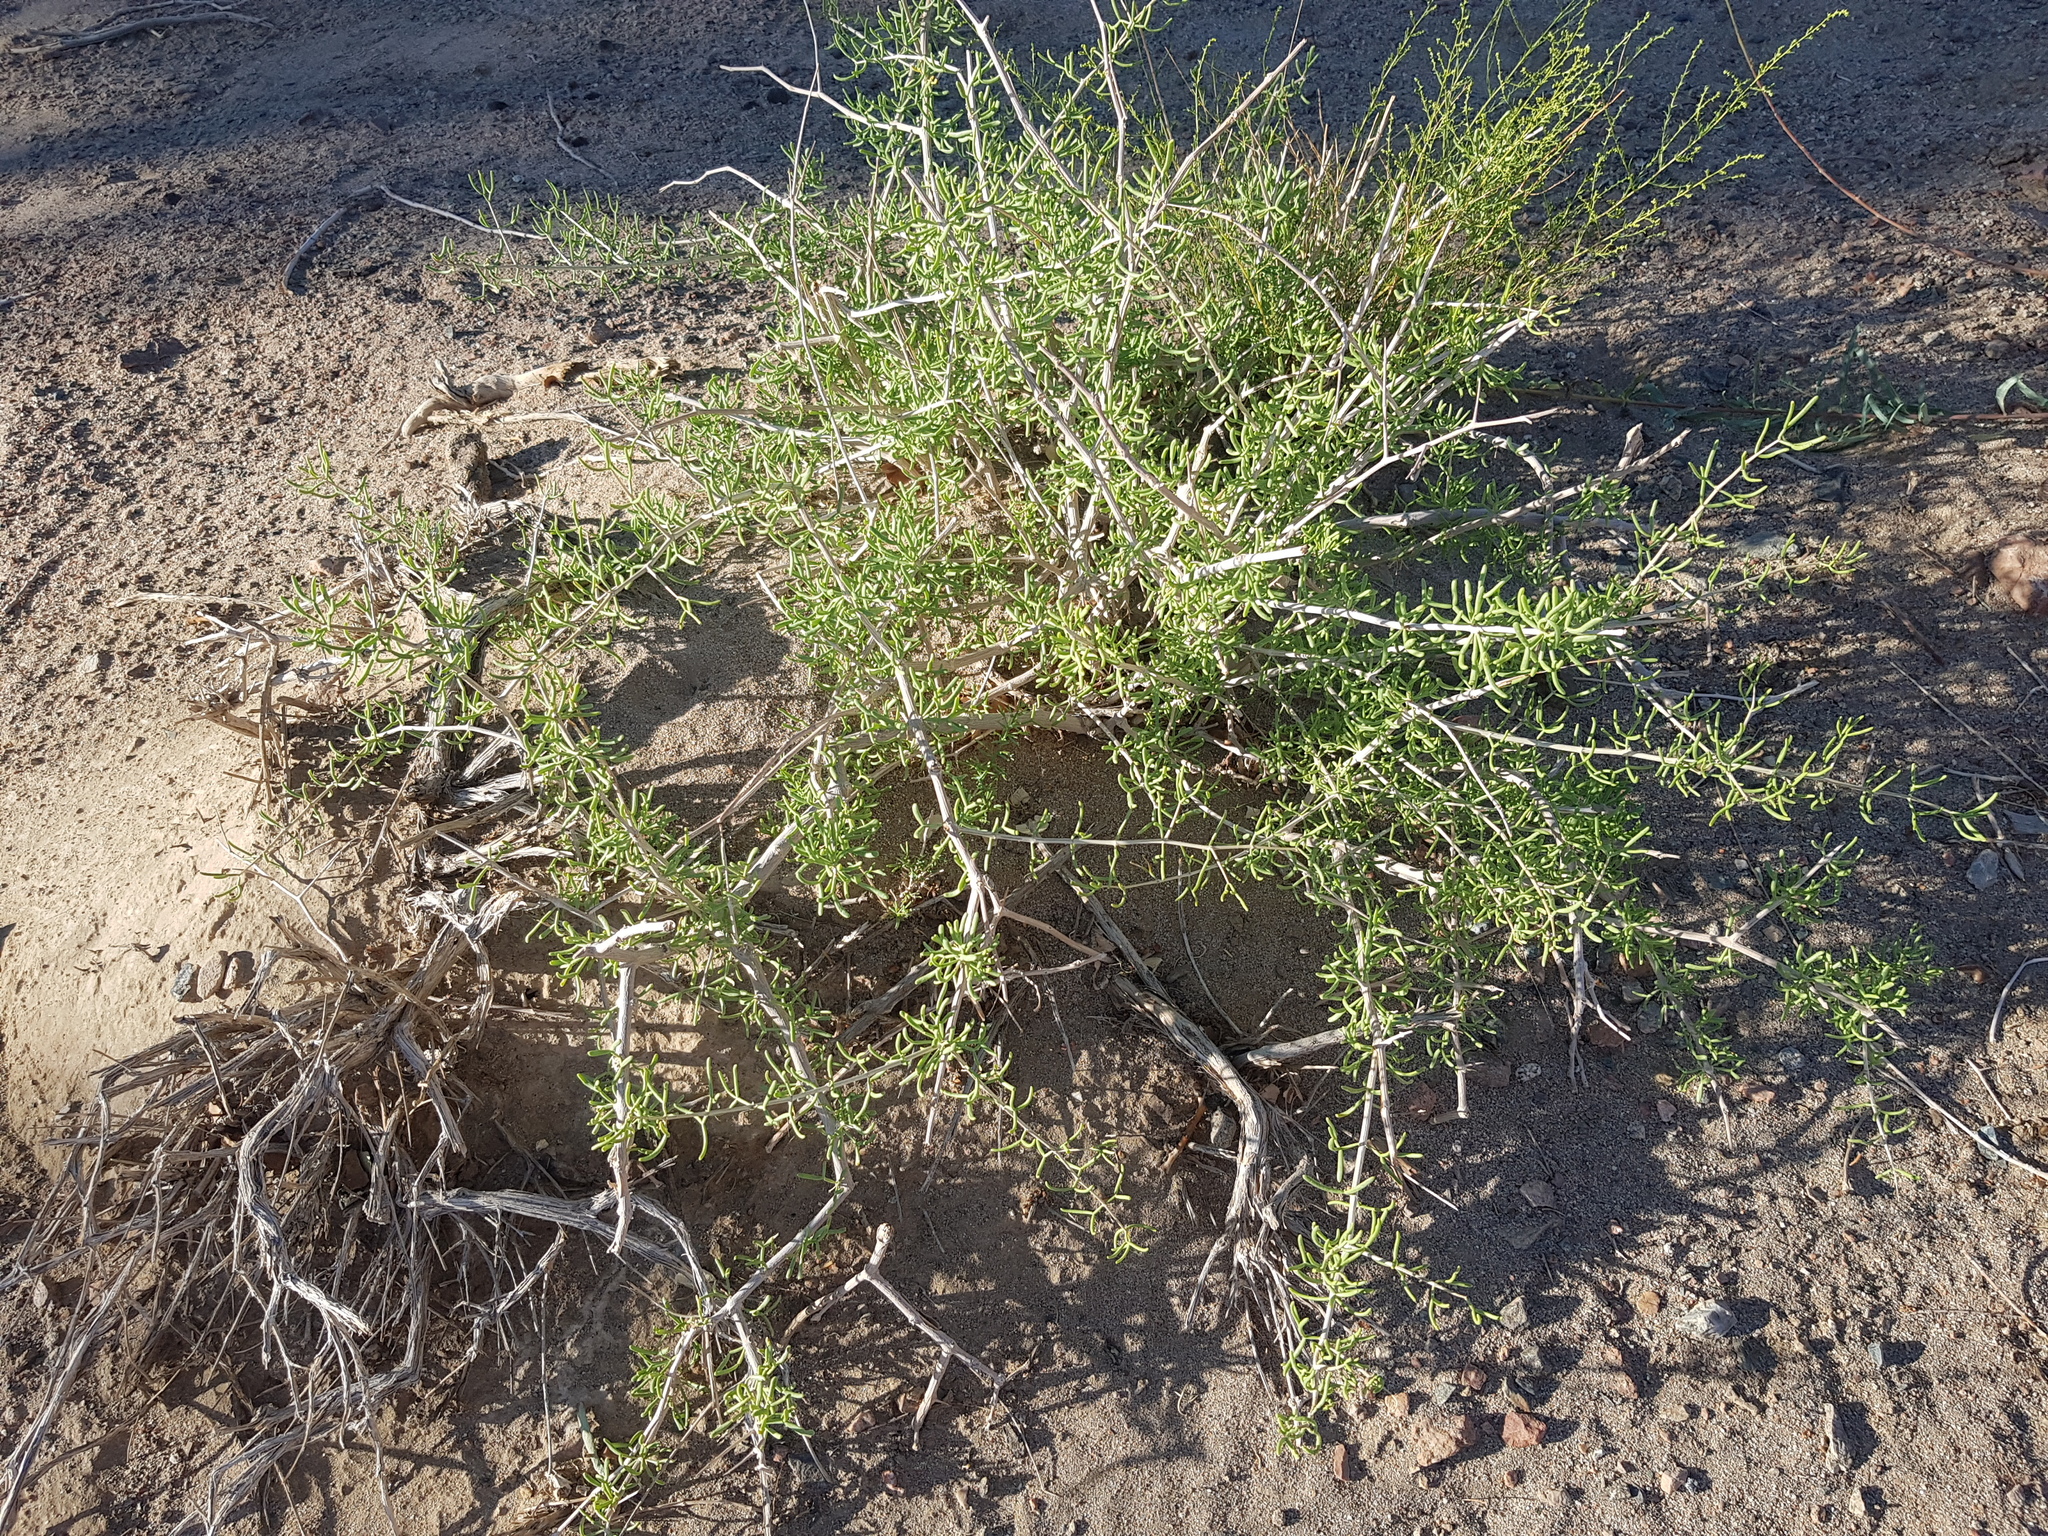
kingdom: Plantae
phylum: Tracheophyta
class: Magnoliopsida
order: Zygophyllales
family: Zygophyllaceae
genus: Zygophyllum
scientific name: Zygophyllum xanthoxylum
